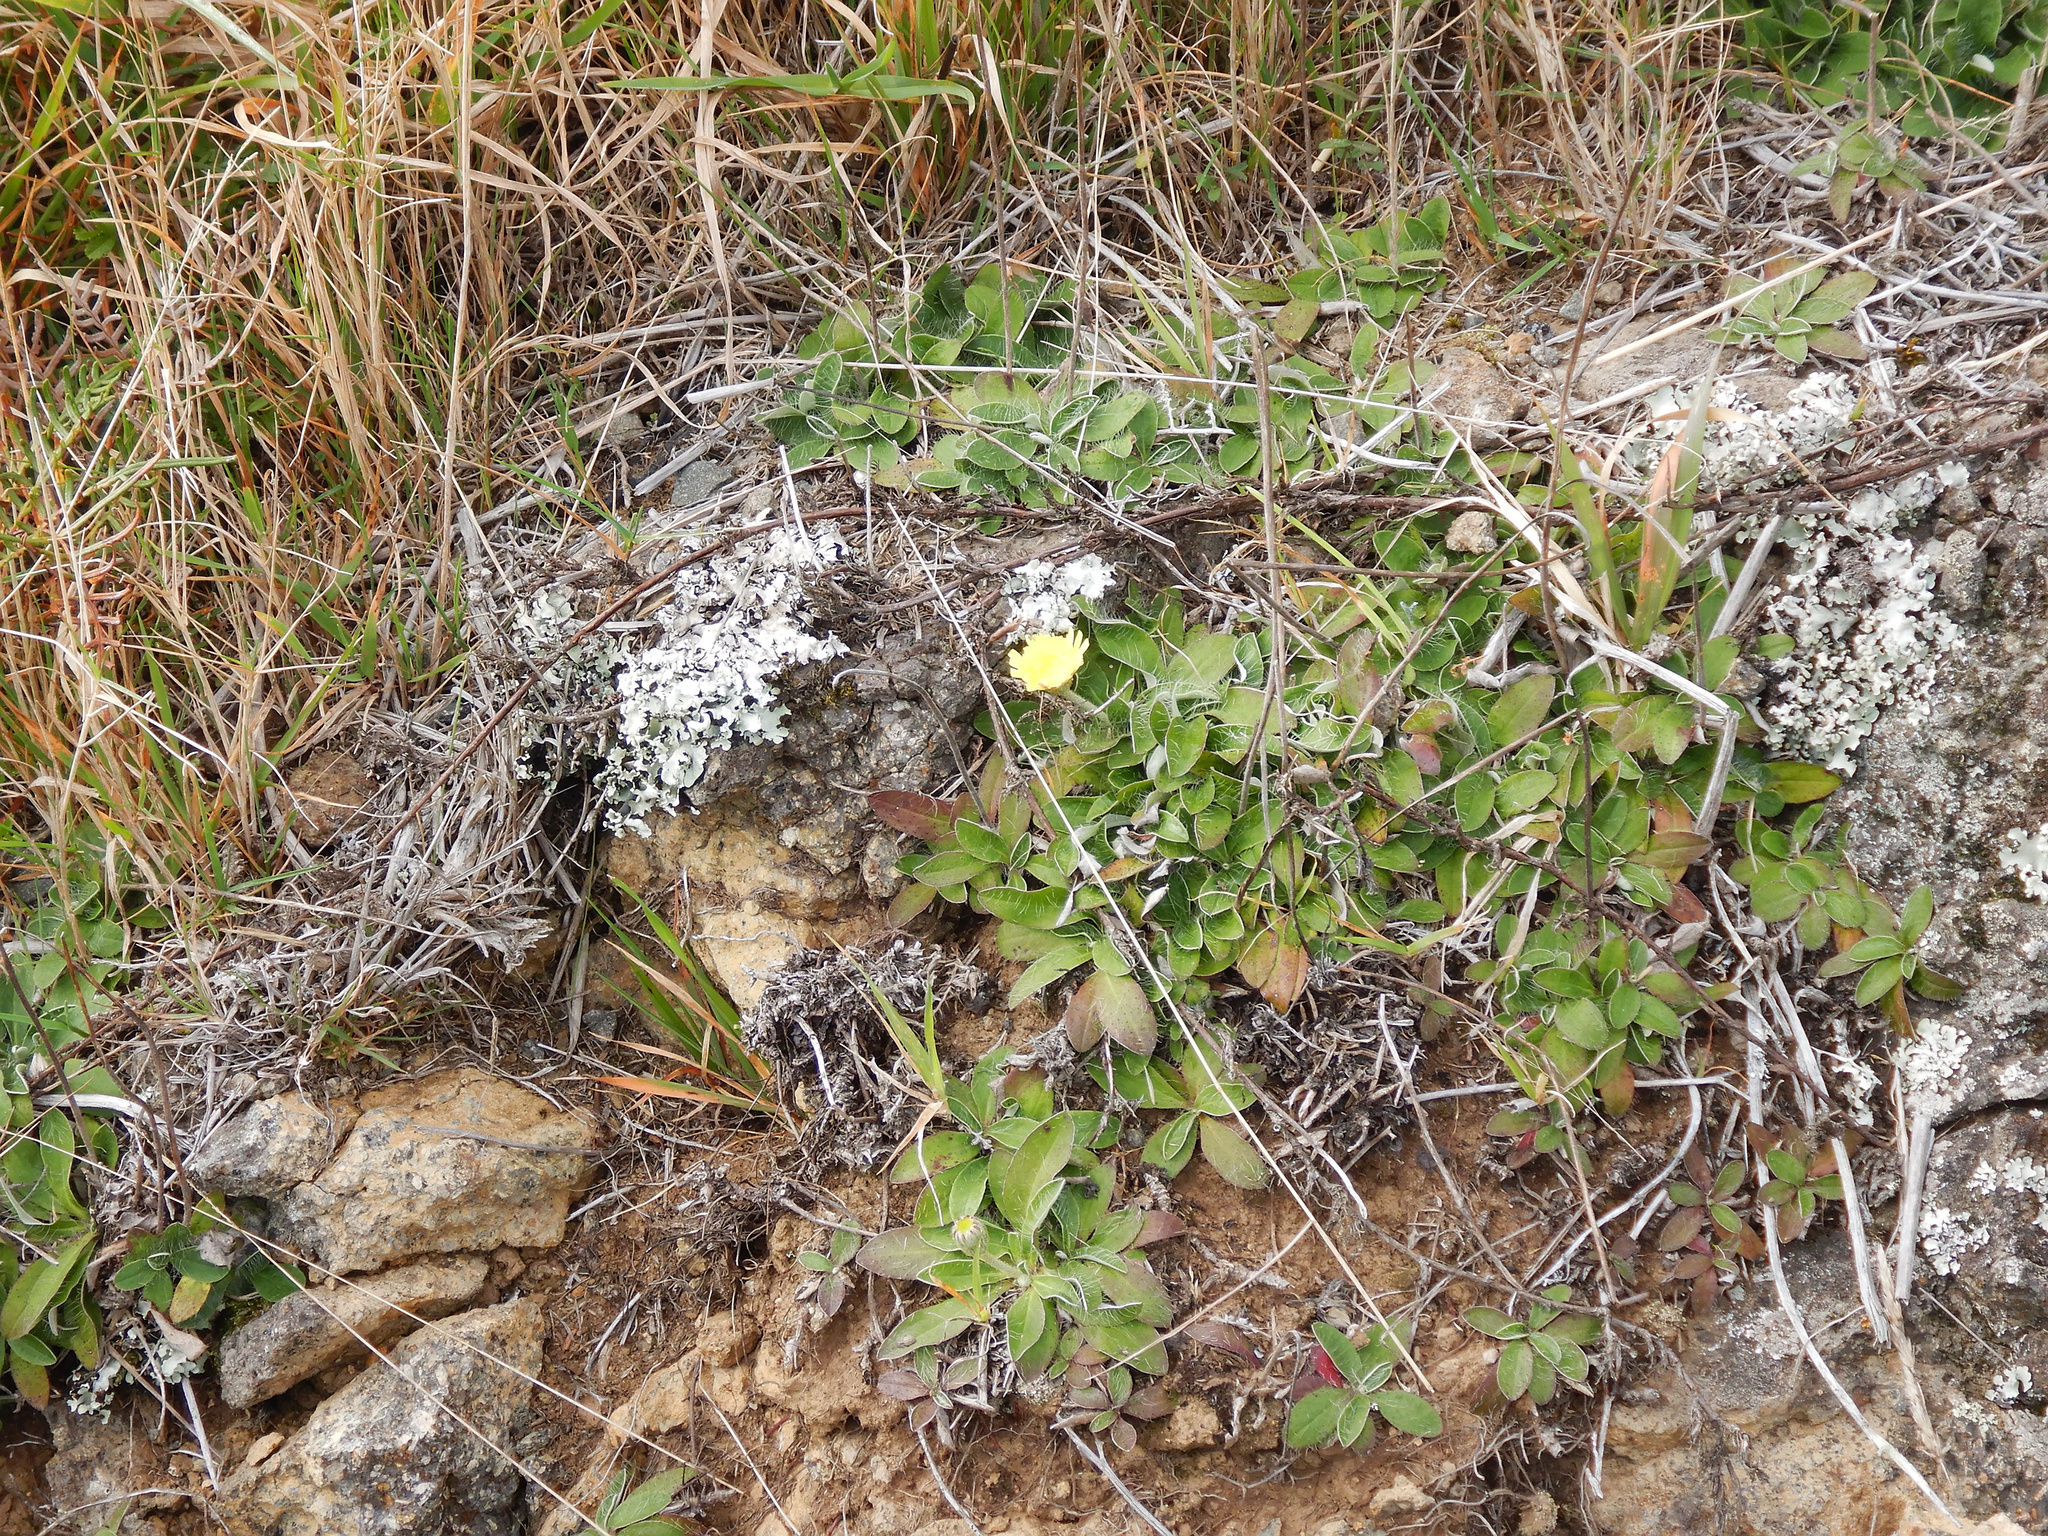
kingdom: Plantae
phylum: Tracheophyta
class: Magnoliopsida
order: Asterales
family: Asteraceae
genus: Pilosella
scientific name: Pilosella officinarum
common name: Mouse-ear hawkweed
